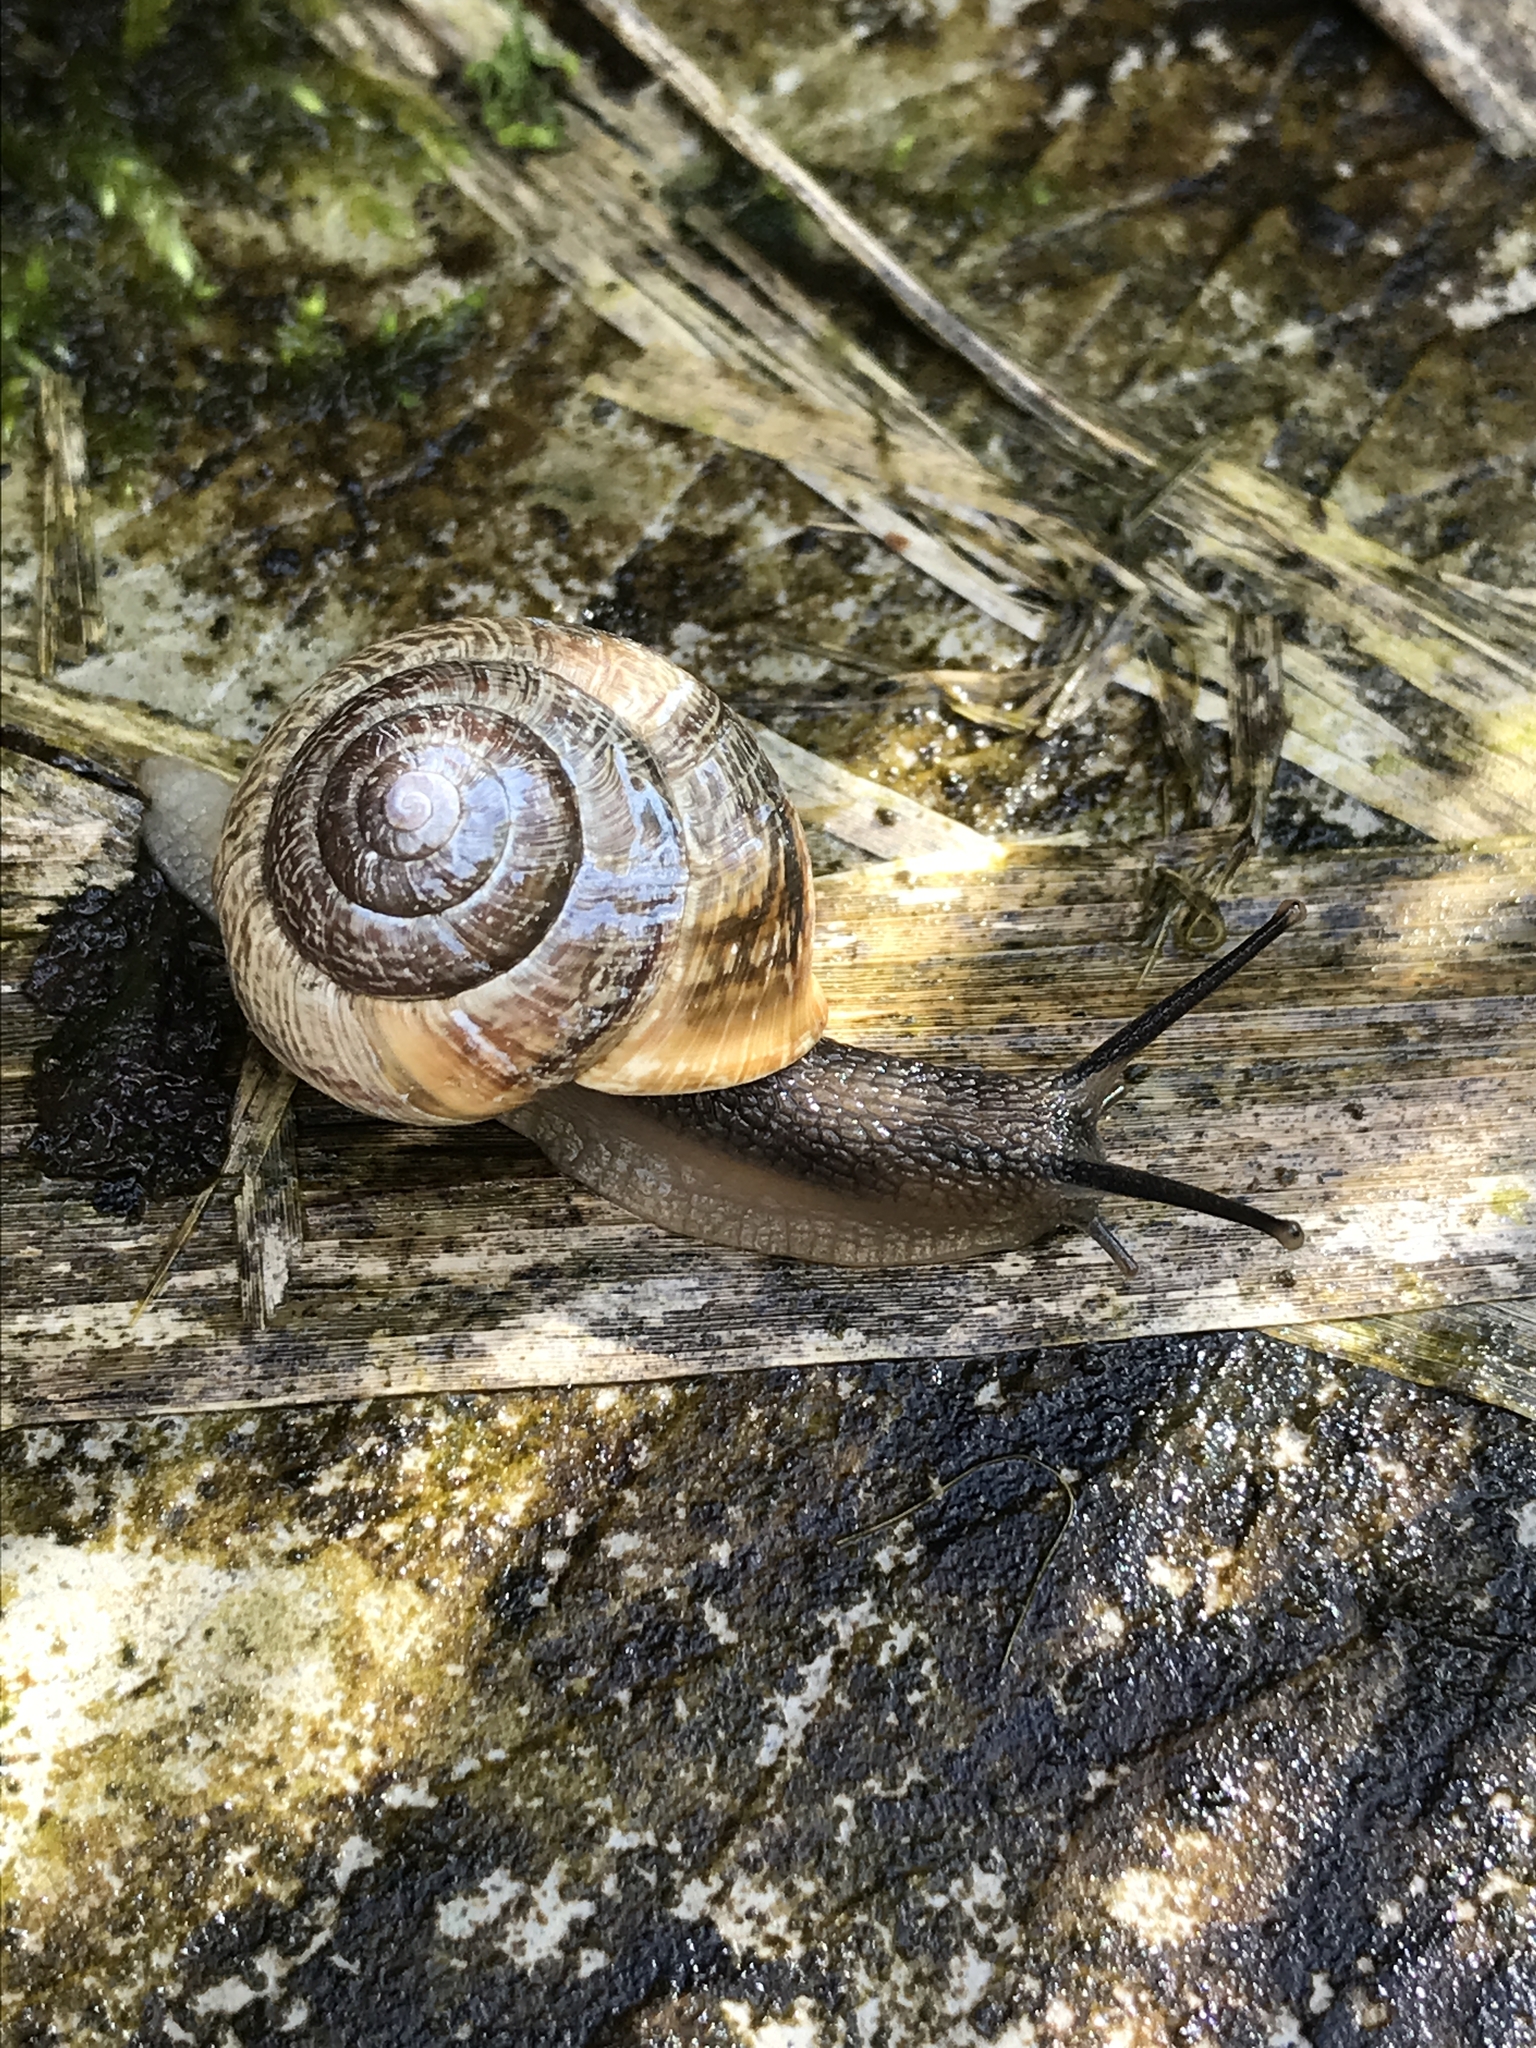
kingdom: Animalia
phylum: Mollusca
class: Gastropoda
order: Stylommatophora
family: Helicidae
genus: Arianta
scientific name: Arianta arbustorum
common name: Copse snail
